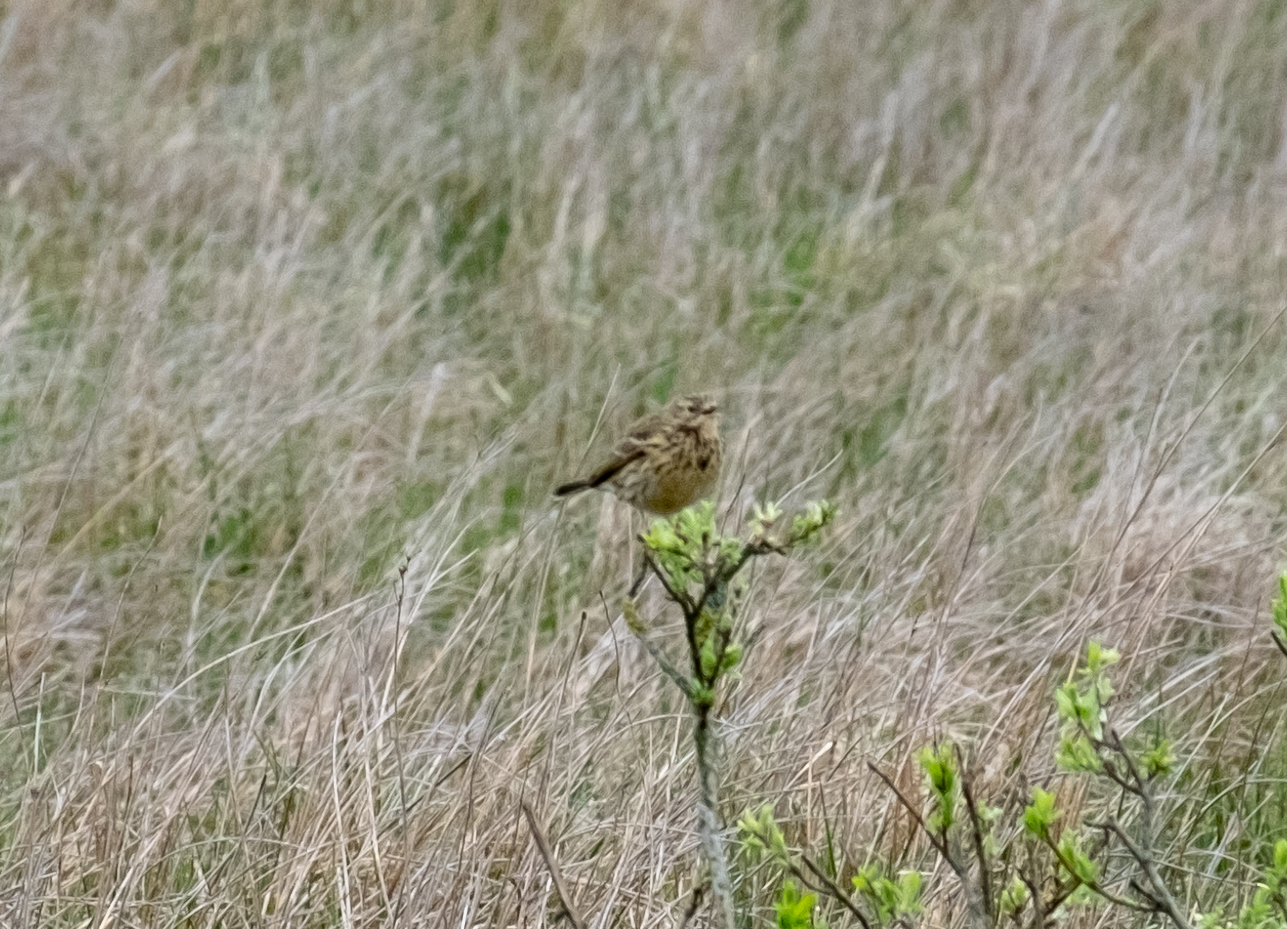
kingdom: Animalia
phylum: Chordata
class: Aves
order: Passeriformes
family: Motacillidae
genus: Anthus
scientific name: Anthus pratensis
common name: Meadow pipit
